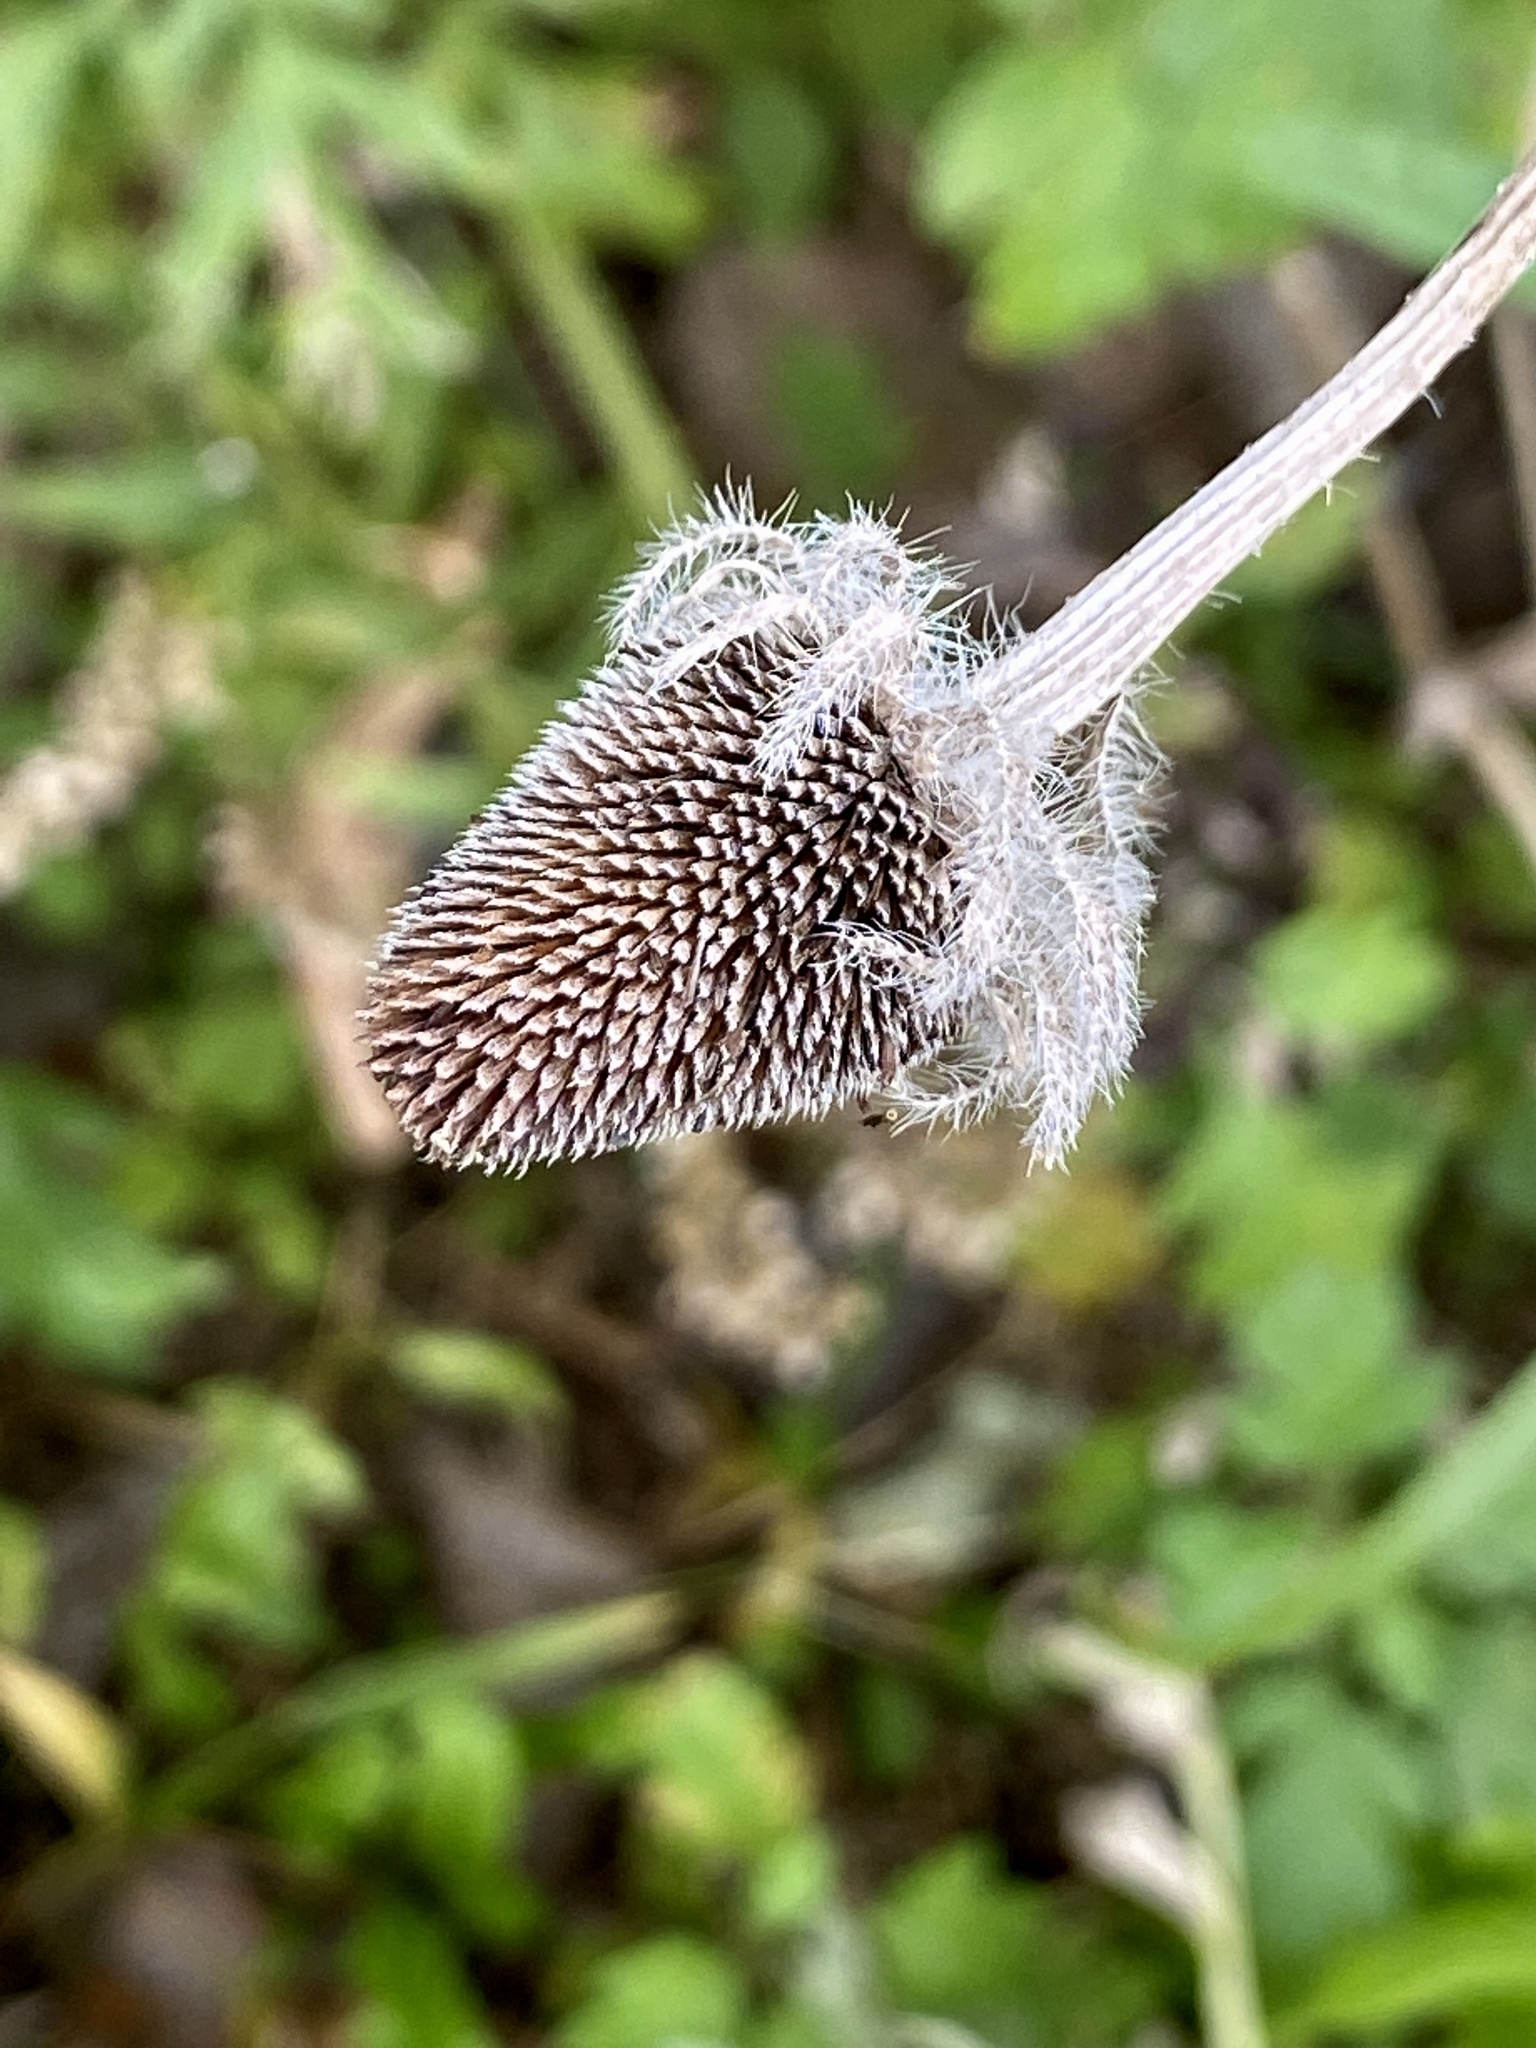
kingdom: Plantae
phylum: Tracheophyta
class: Magnoliopsida
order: Asterales
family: Asteraceae
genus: Rudbeckia
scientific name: Rudbeckia hirta
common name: Black-eyed-susan
